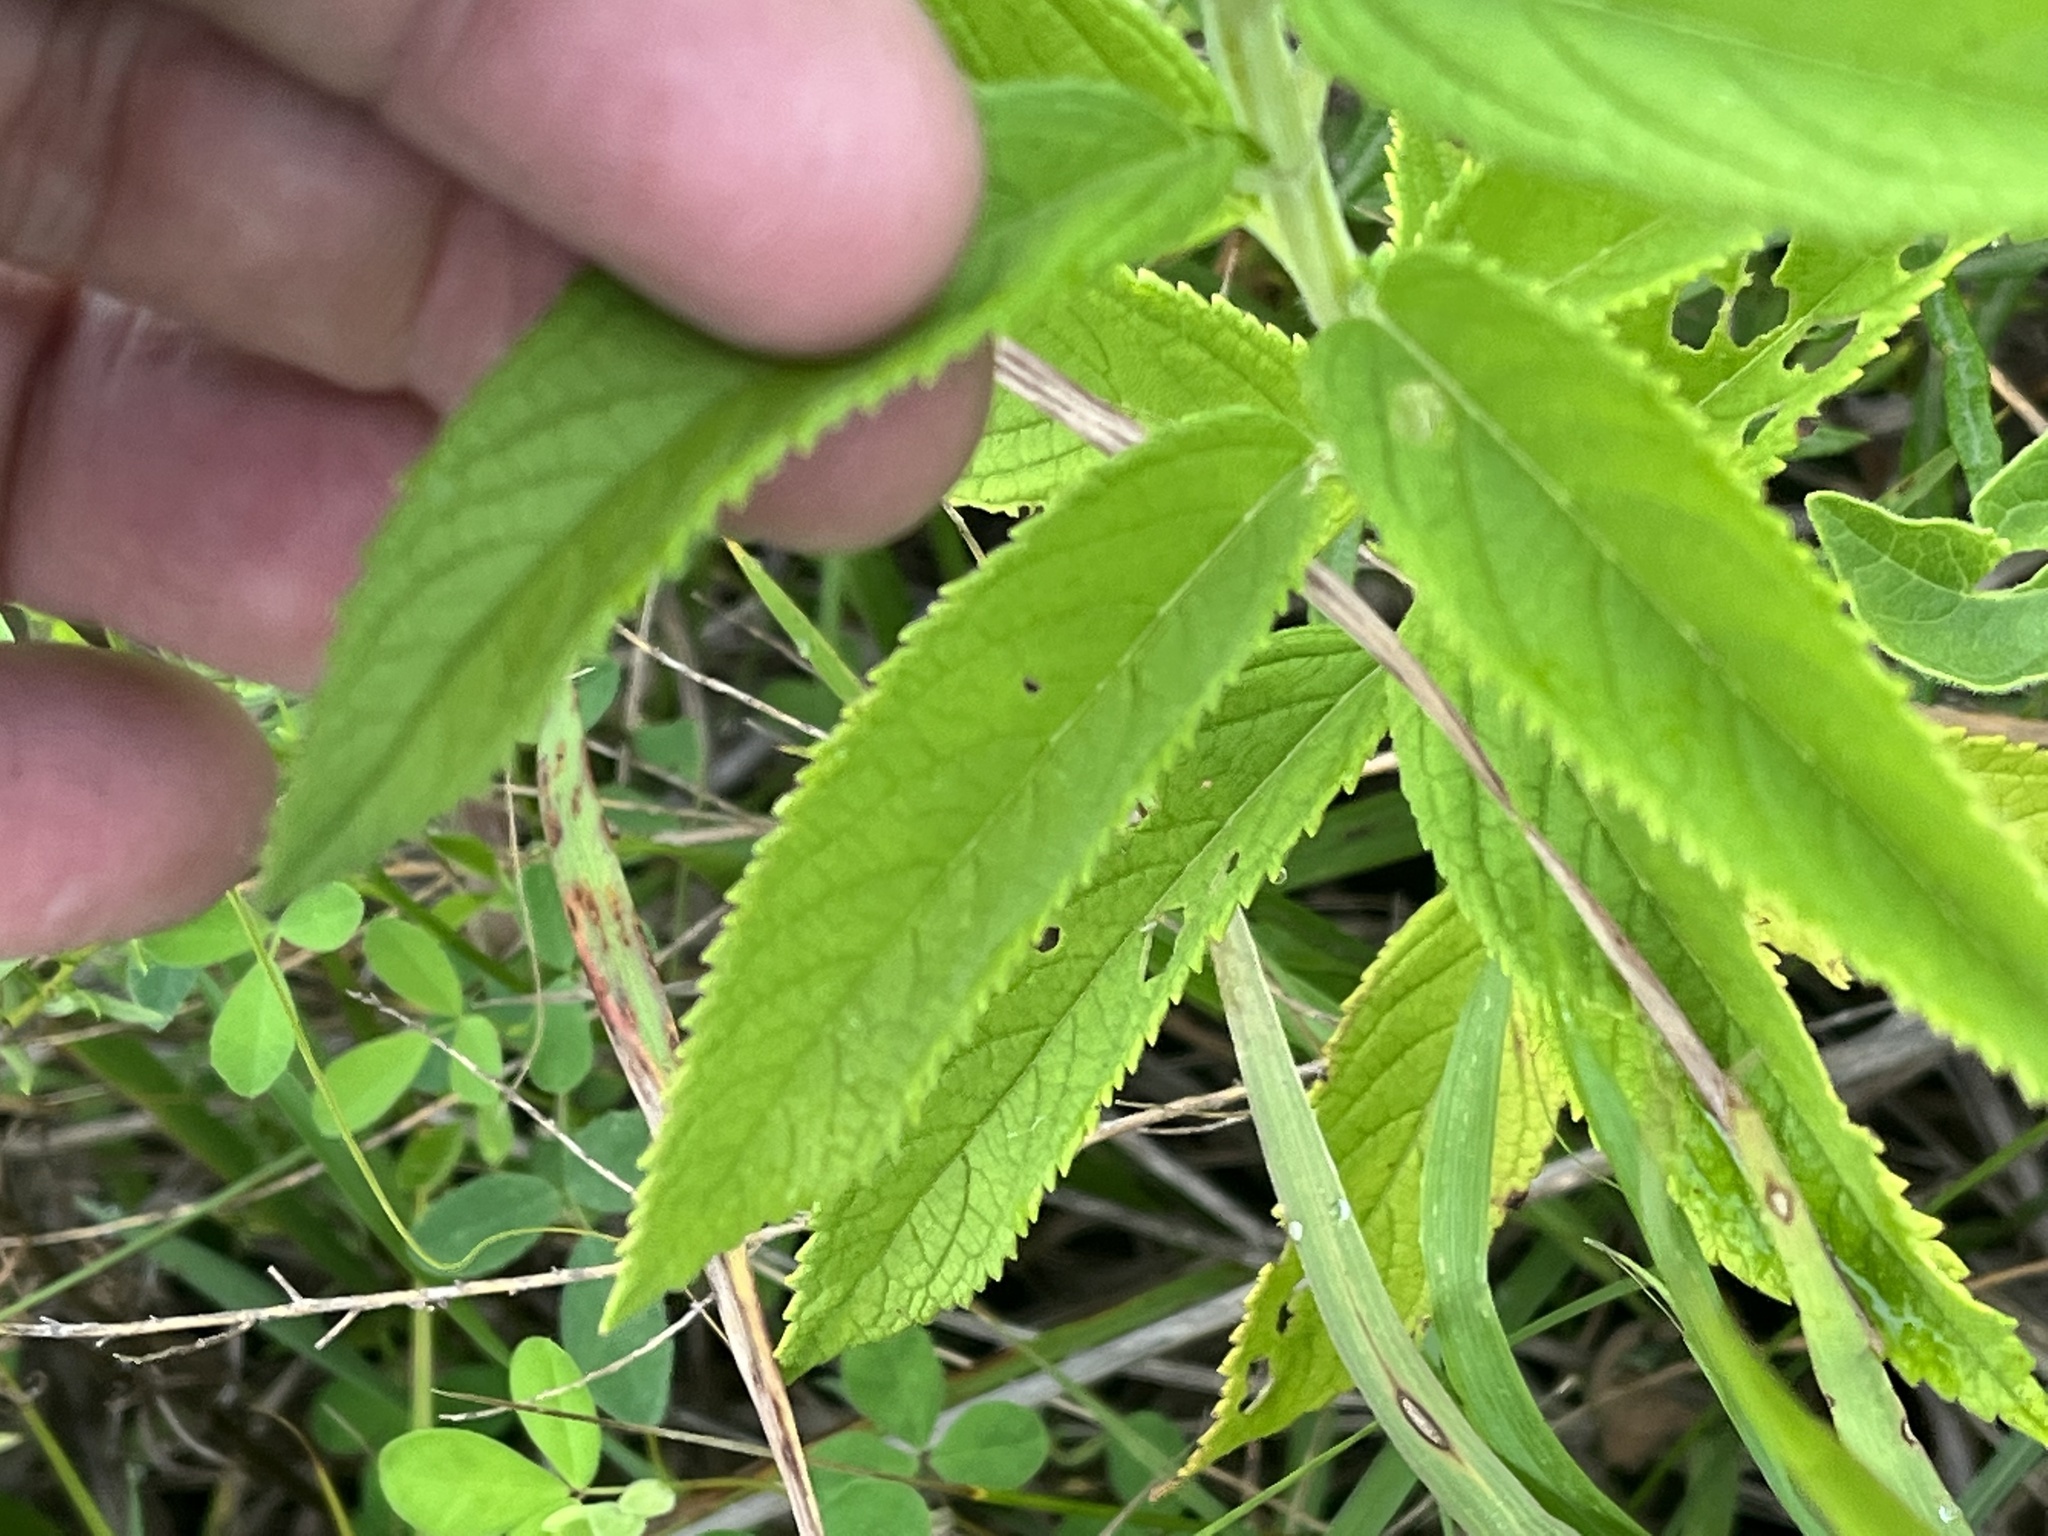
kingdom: Plantae
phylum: Tracheophyta
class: Magnoliopsida
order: Lamiales
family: Lamiaceae
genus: Teucrium
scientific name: Teucrium canadense
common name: American germander
